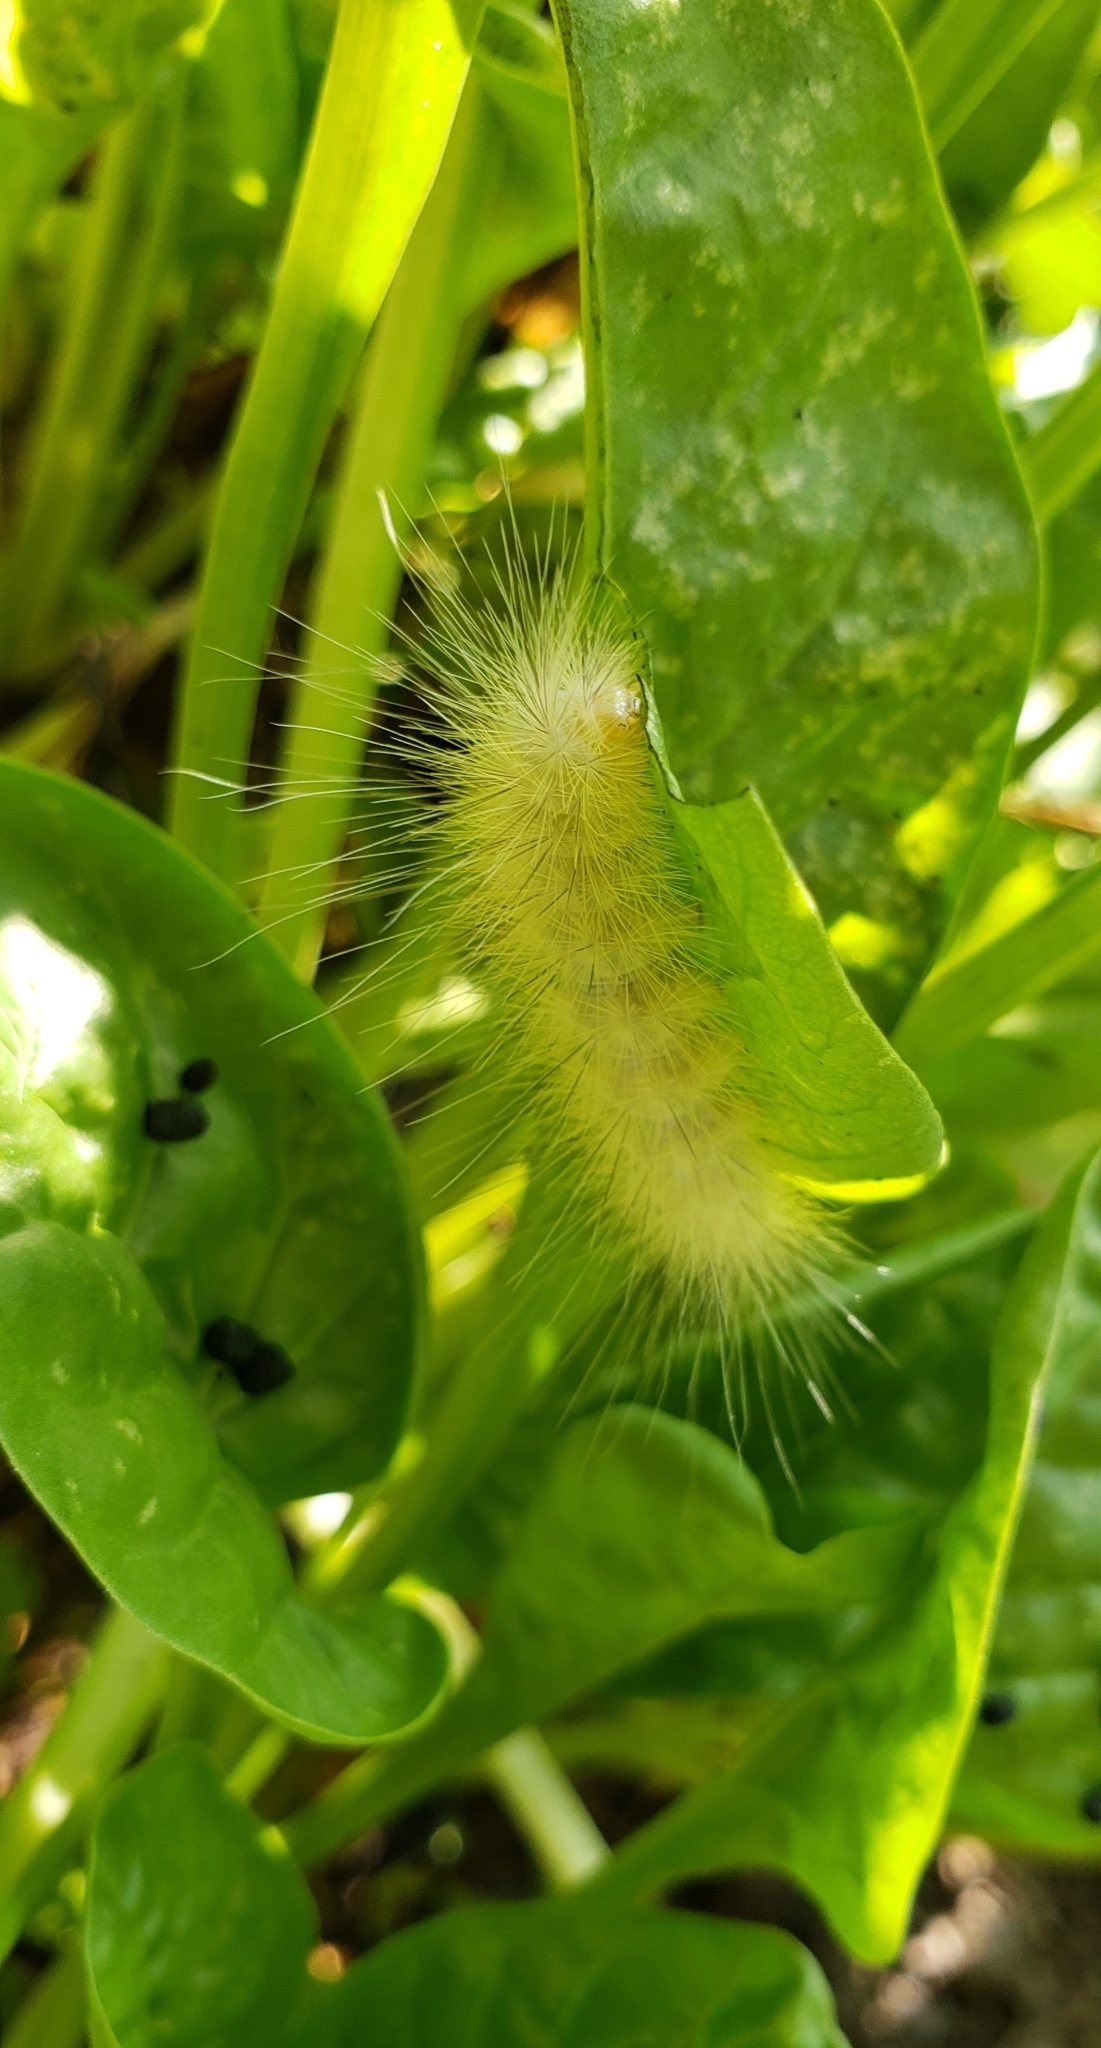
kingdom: Animalia
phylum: Arthropoda
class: Insecta
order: Lepidoptera
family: Erebidae
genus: Spilosoma
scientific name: Spilosoma virginica
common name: Virginia tiger moth
